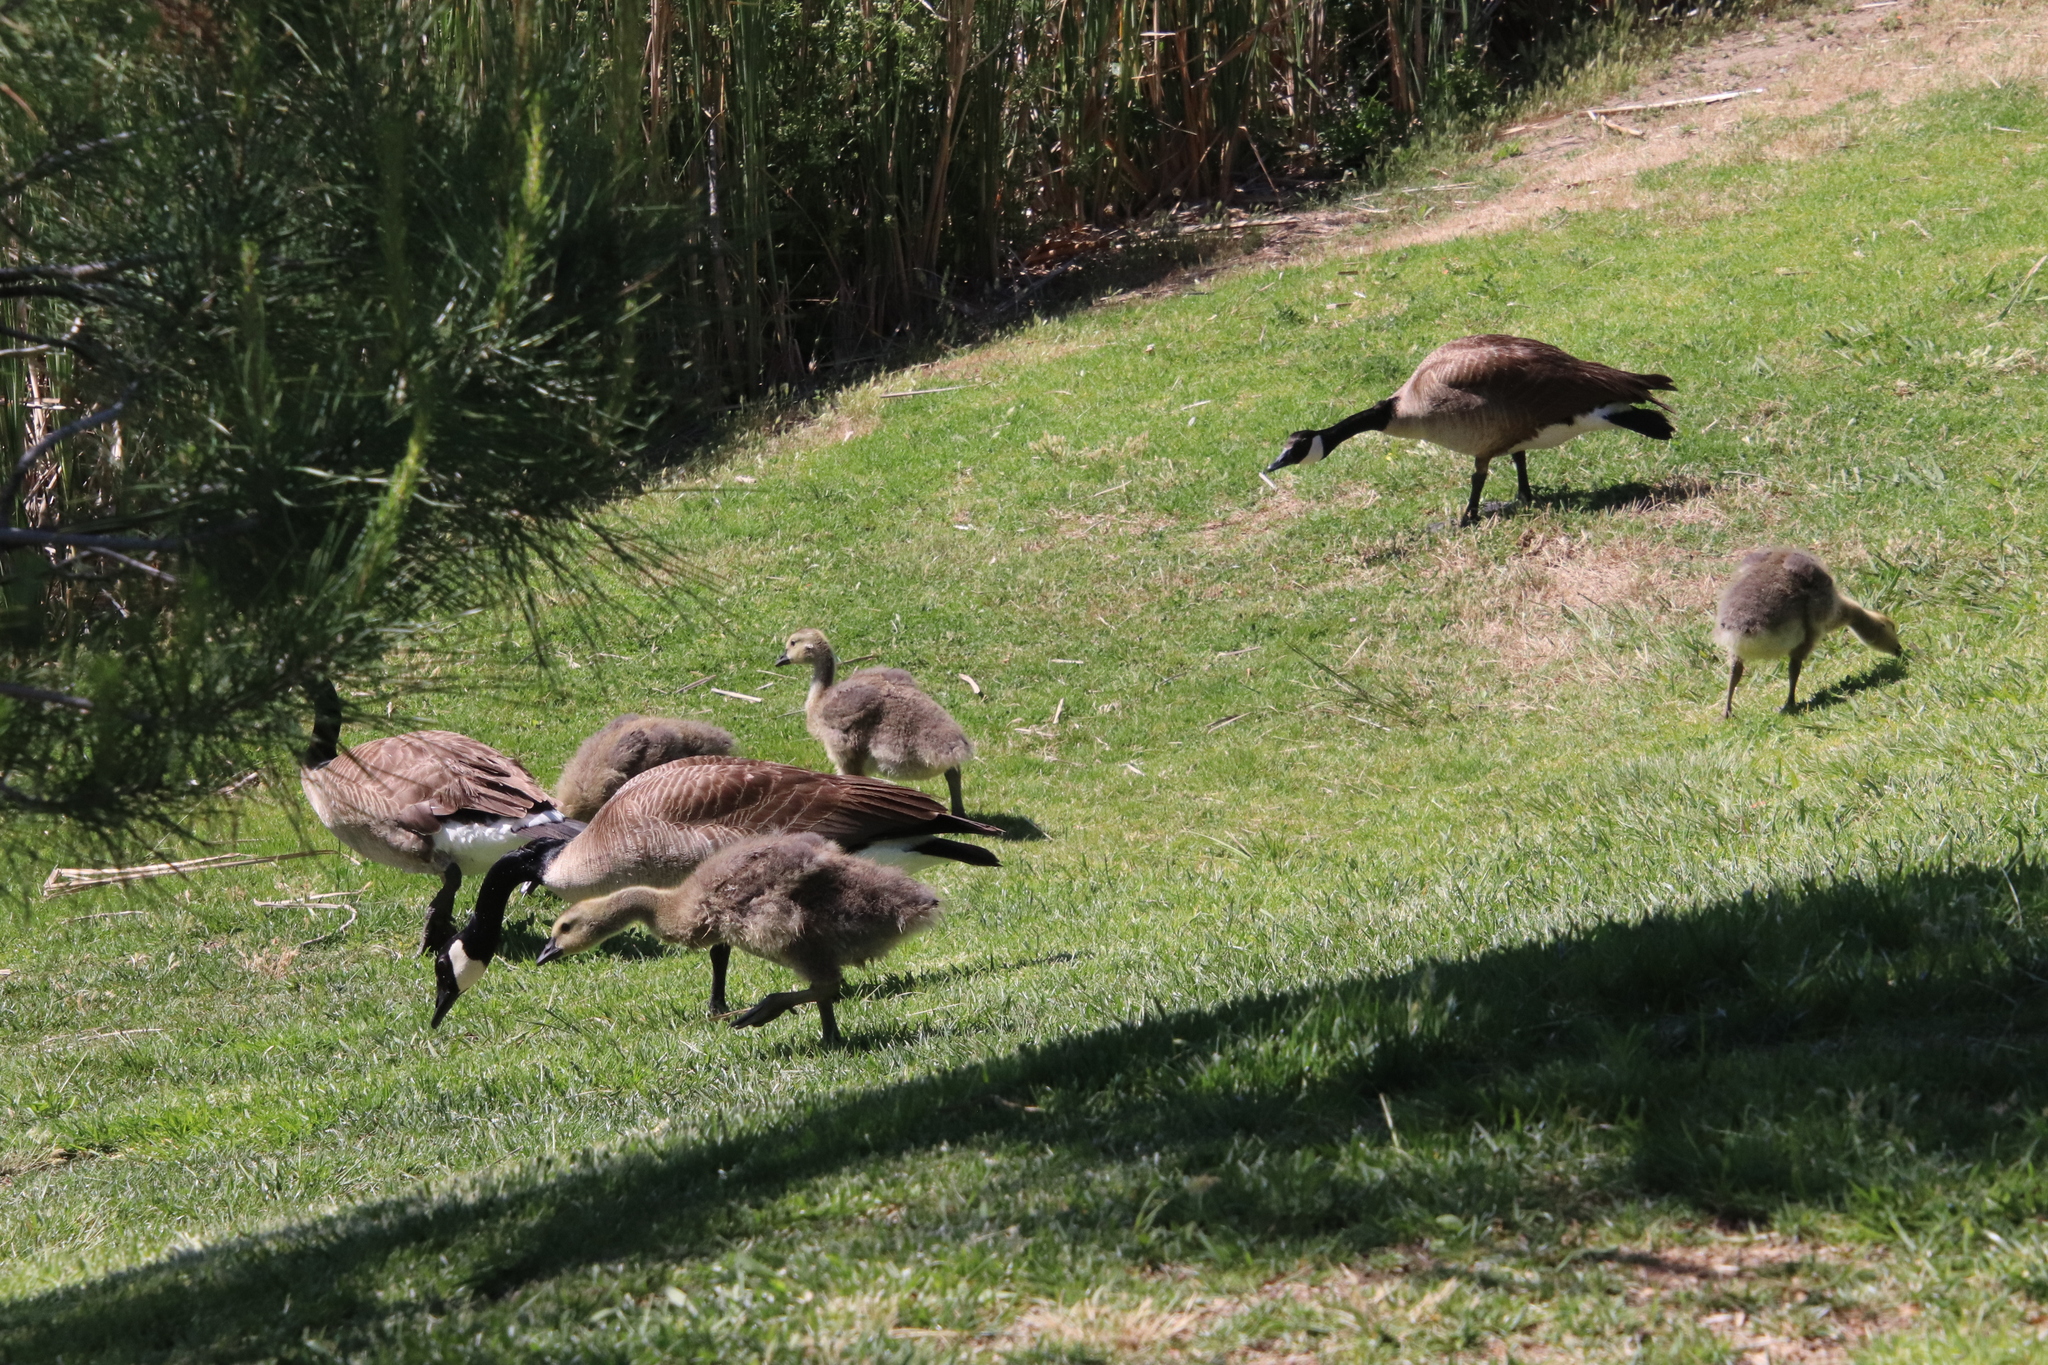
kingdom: Animalia
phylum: Chordata
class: Aves
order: Anseriformes
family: Anatidae
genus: Branta
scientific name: Branta canadensis
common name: Canada goose
